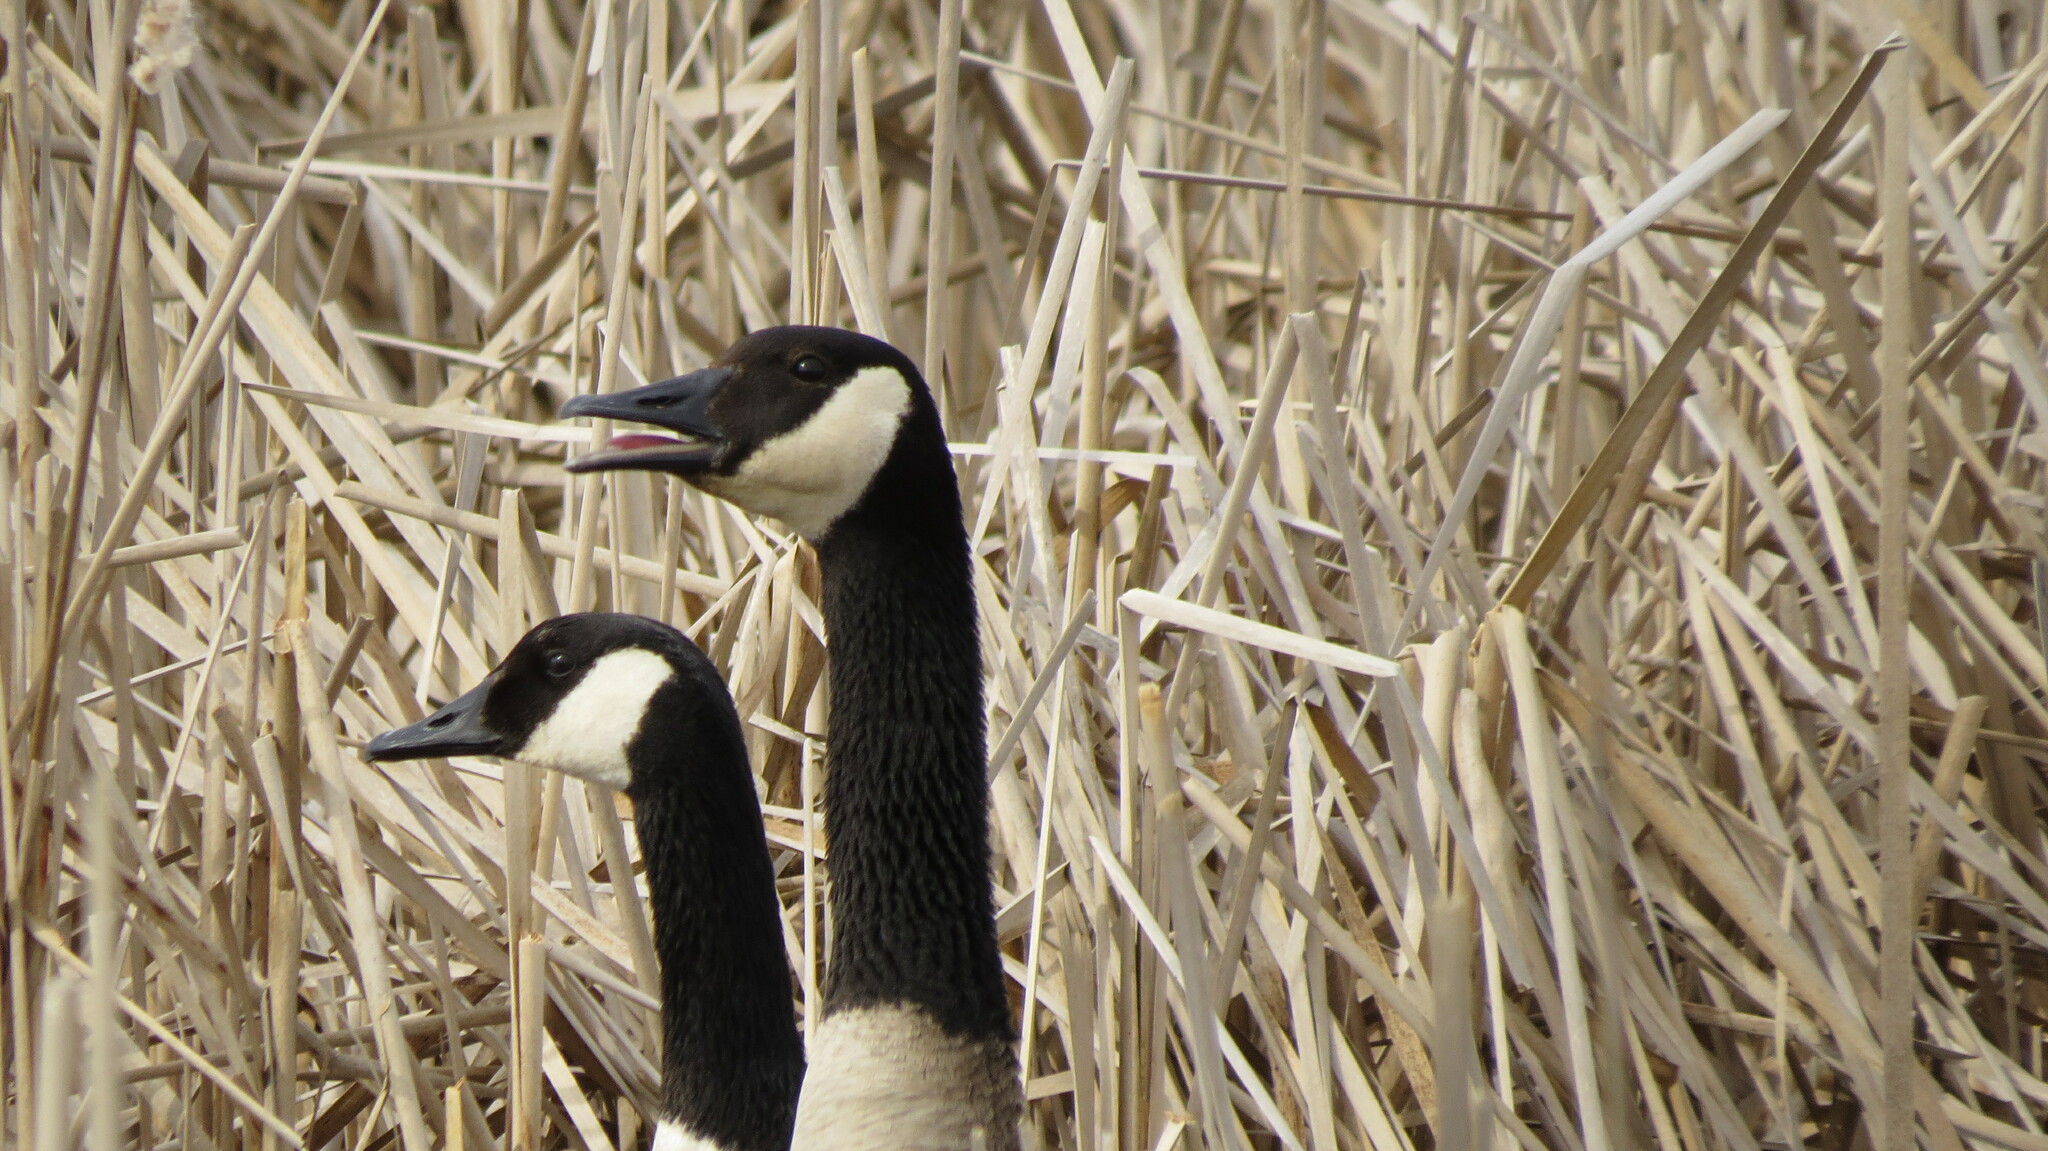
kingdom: Animalia
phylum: Chordata
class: Aves
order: Anseriformes
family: Anatidae
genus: Branta
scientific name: Branta canadensis
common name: Canada goose
